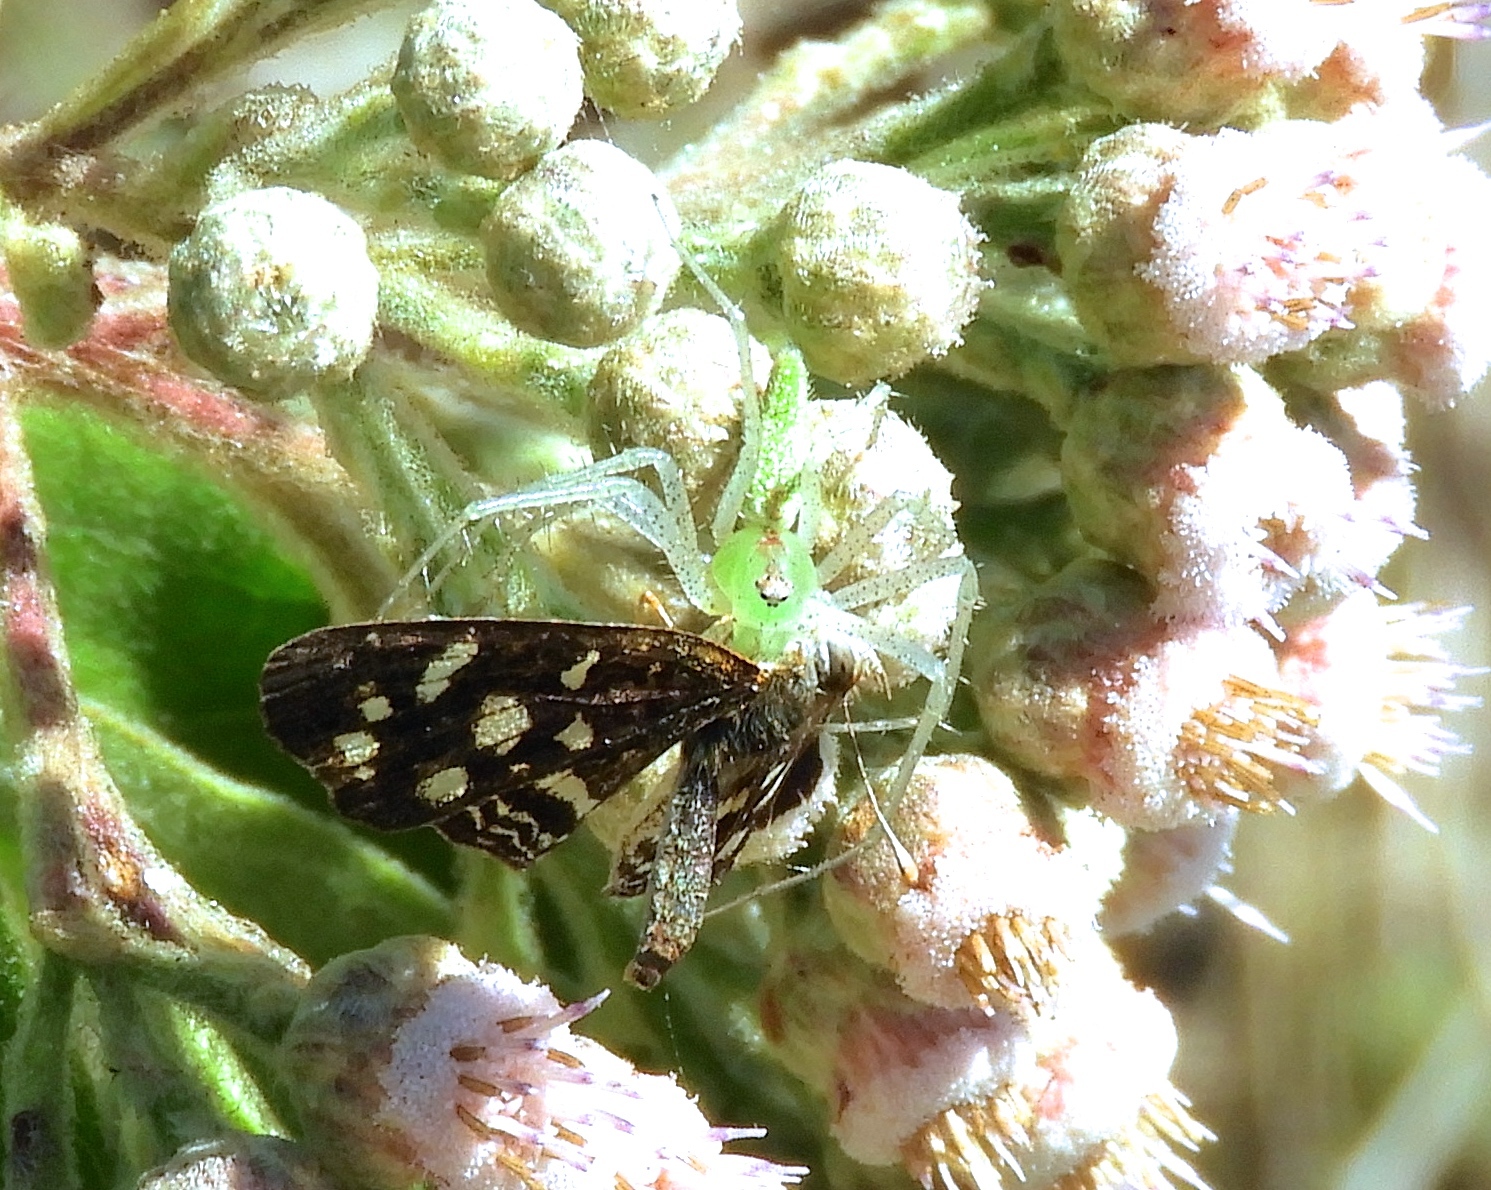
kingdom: Animalia
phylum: Arthropoda
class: Arachnida
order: Araneae
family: Oxyopidae
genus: Peucetia
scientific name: Peucetia
